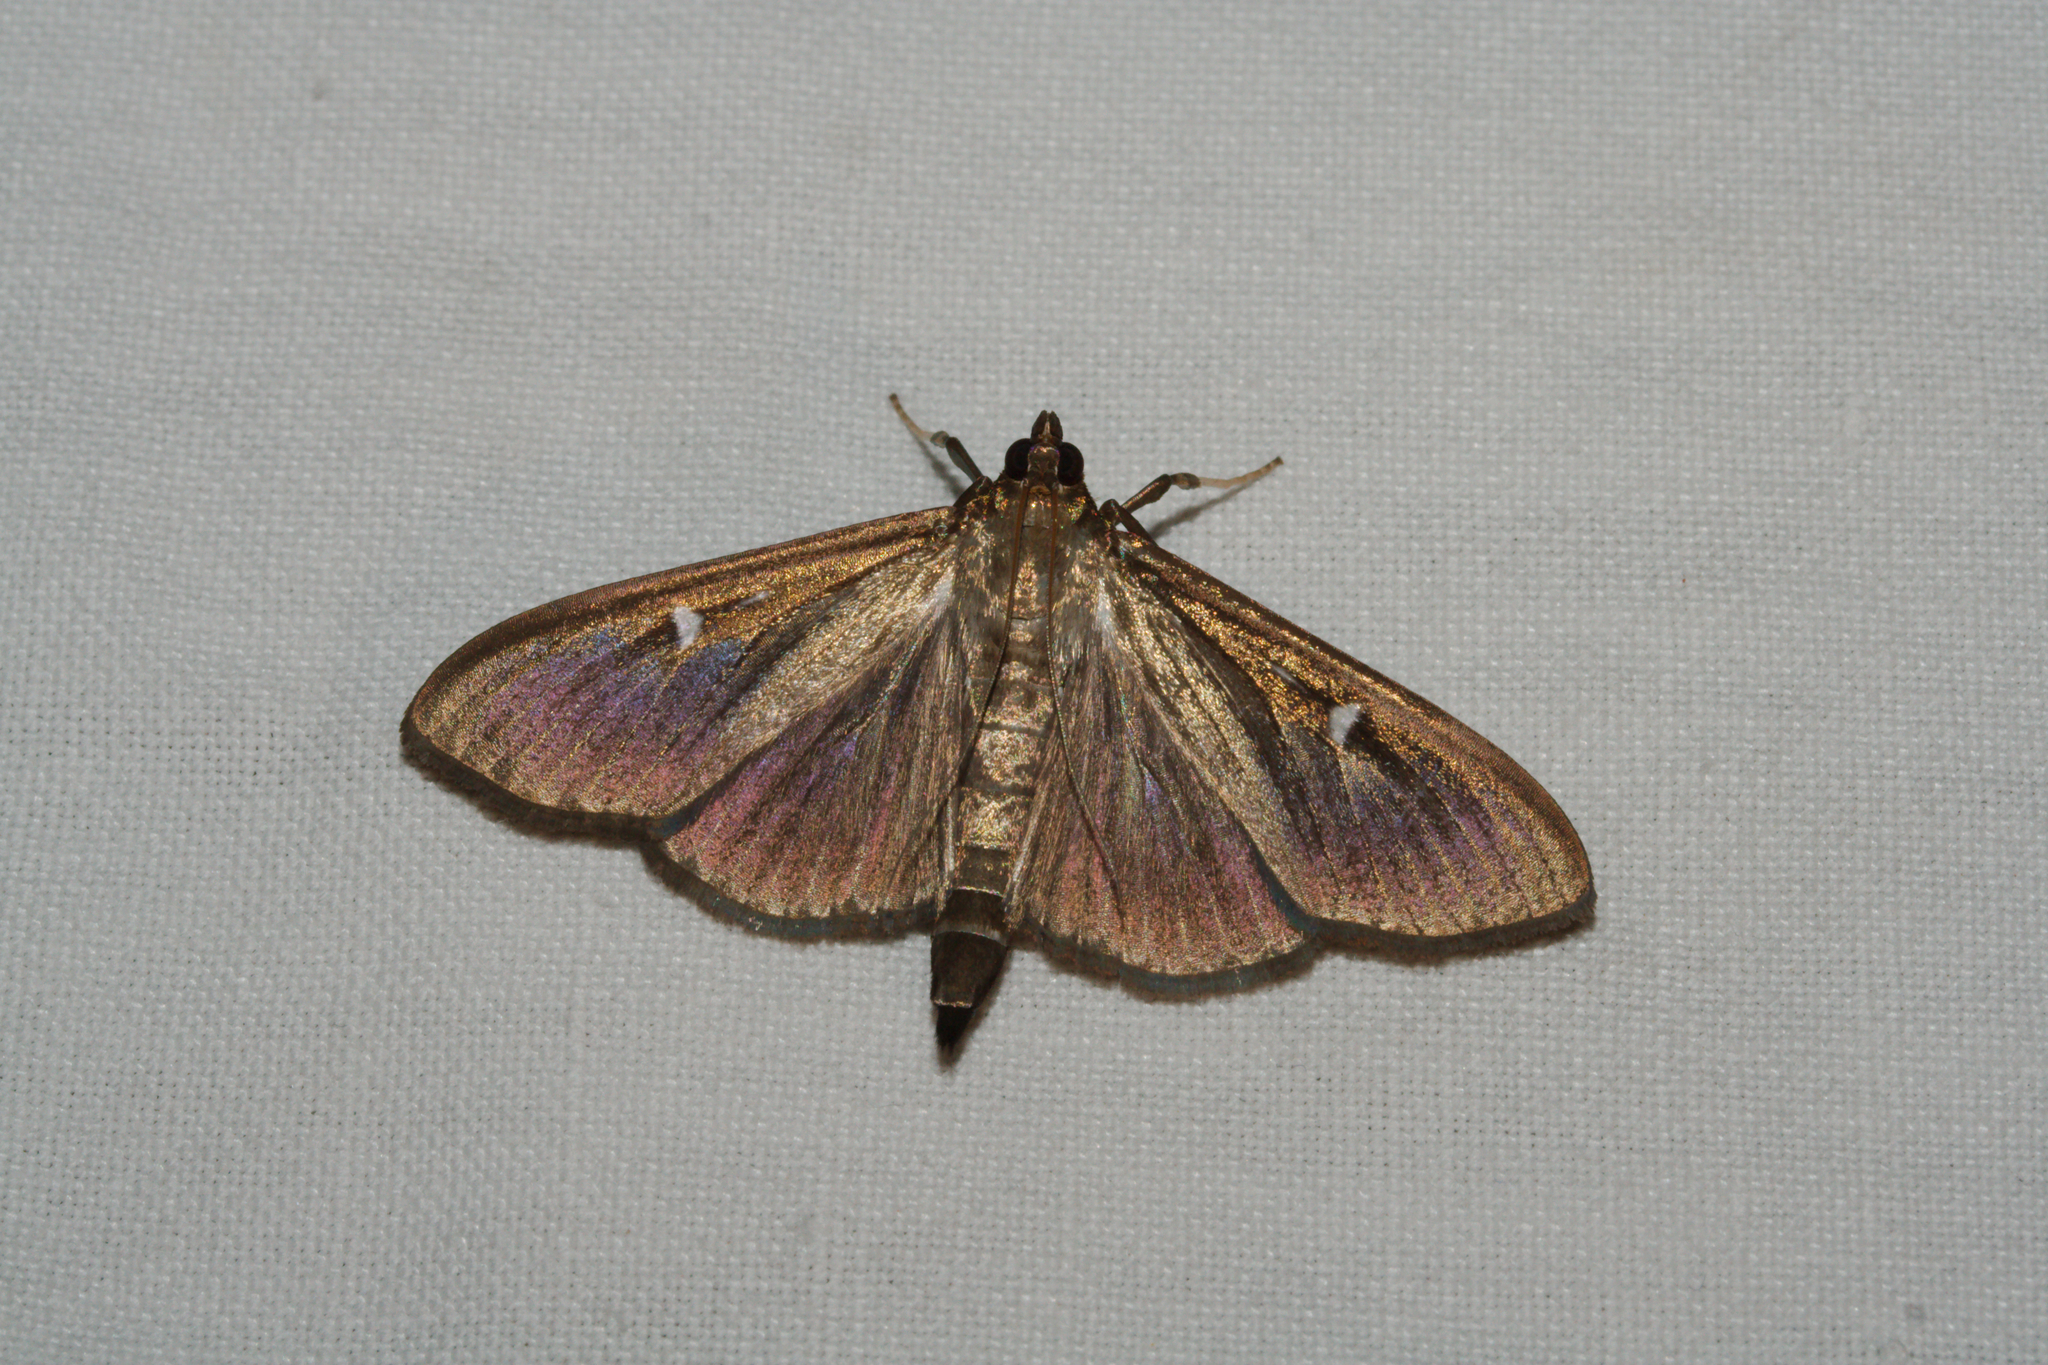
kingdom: Animalia
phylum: Arthropoda
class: Insecta
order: Lepidoptera
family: Crambidae
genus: Cydalima
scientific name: Cydalima perspectalis
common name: Box tree moth
